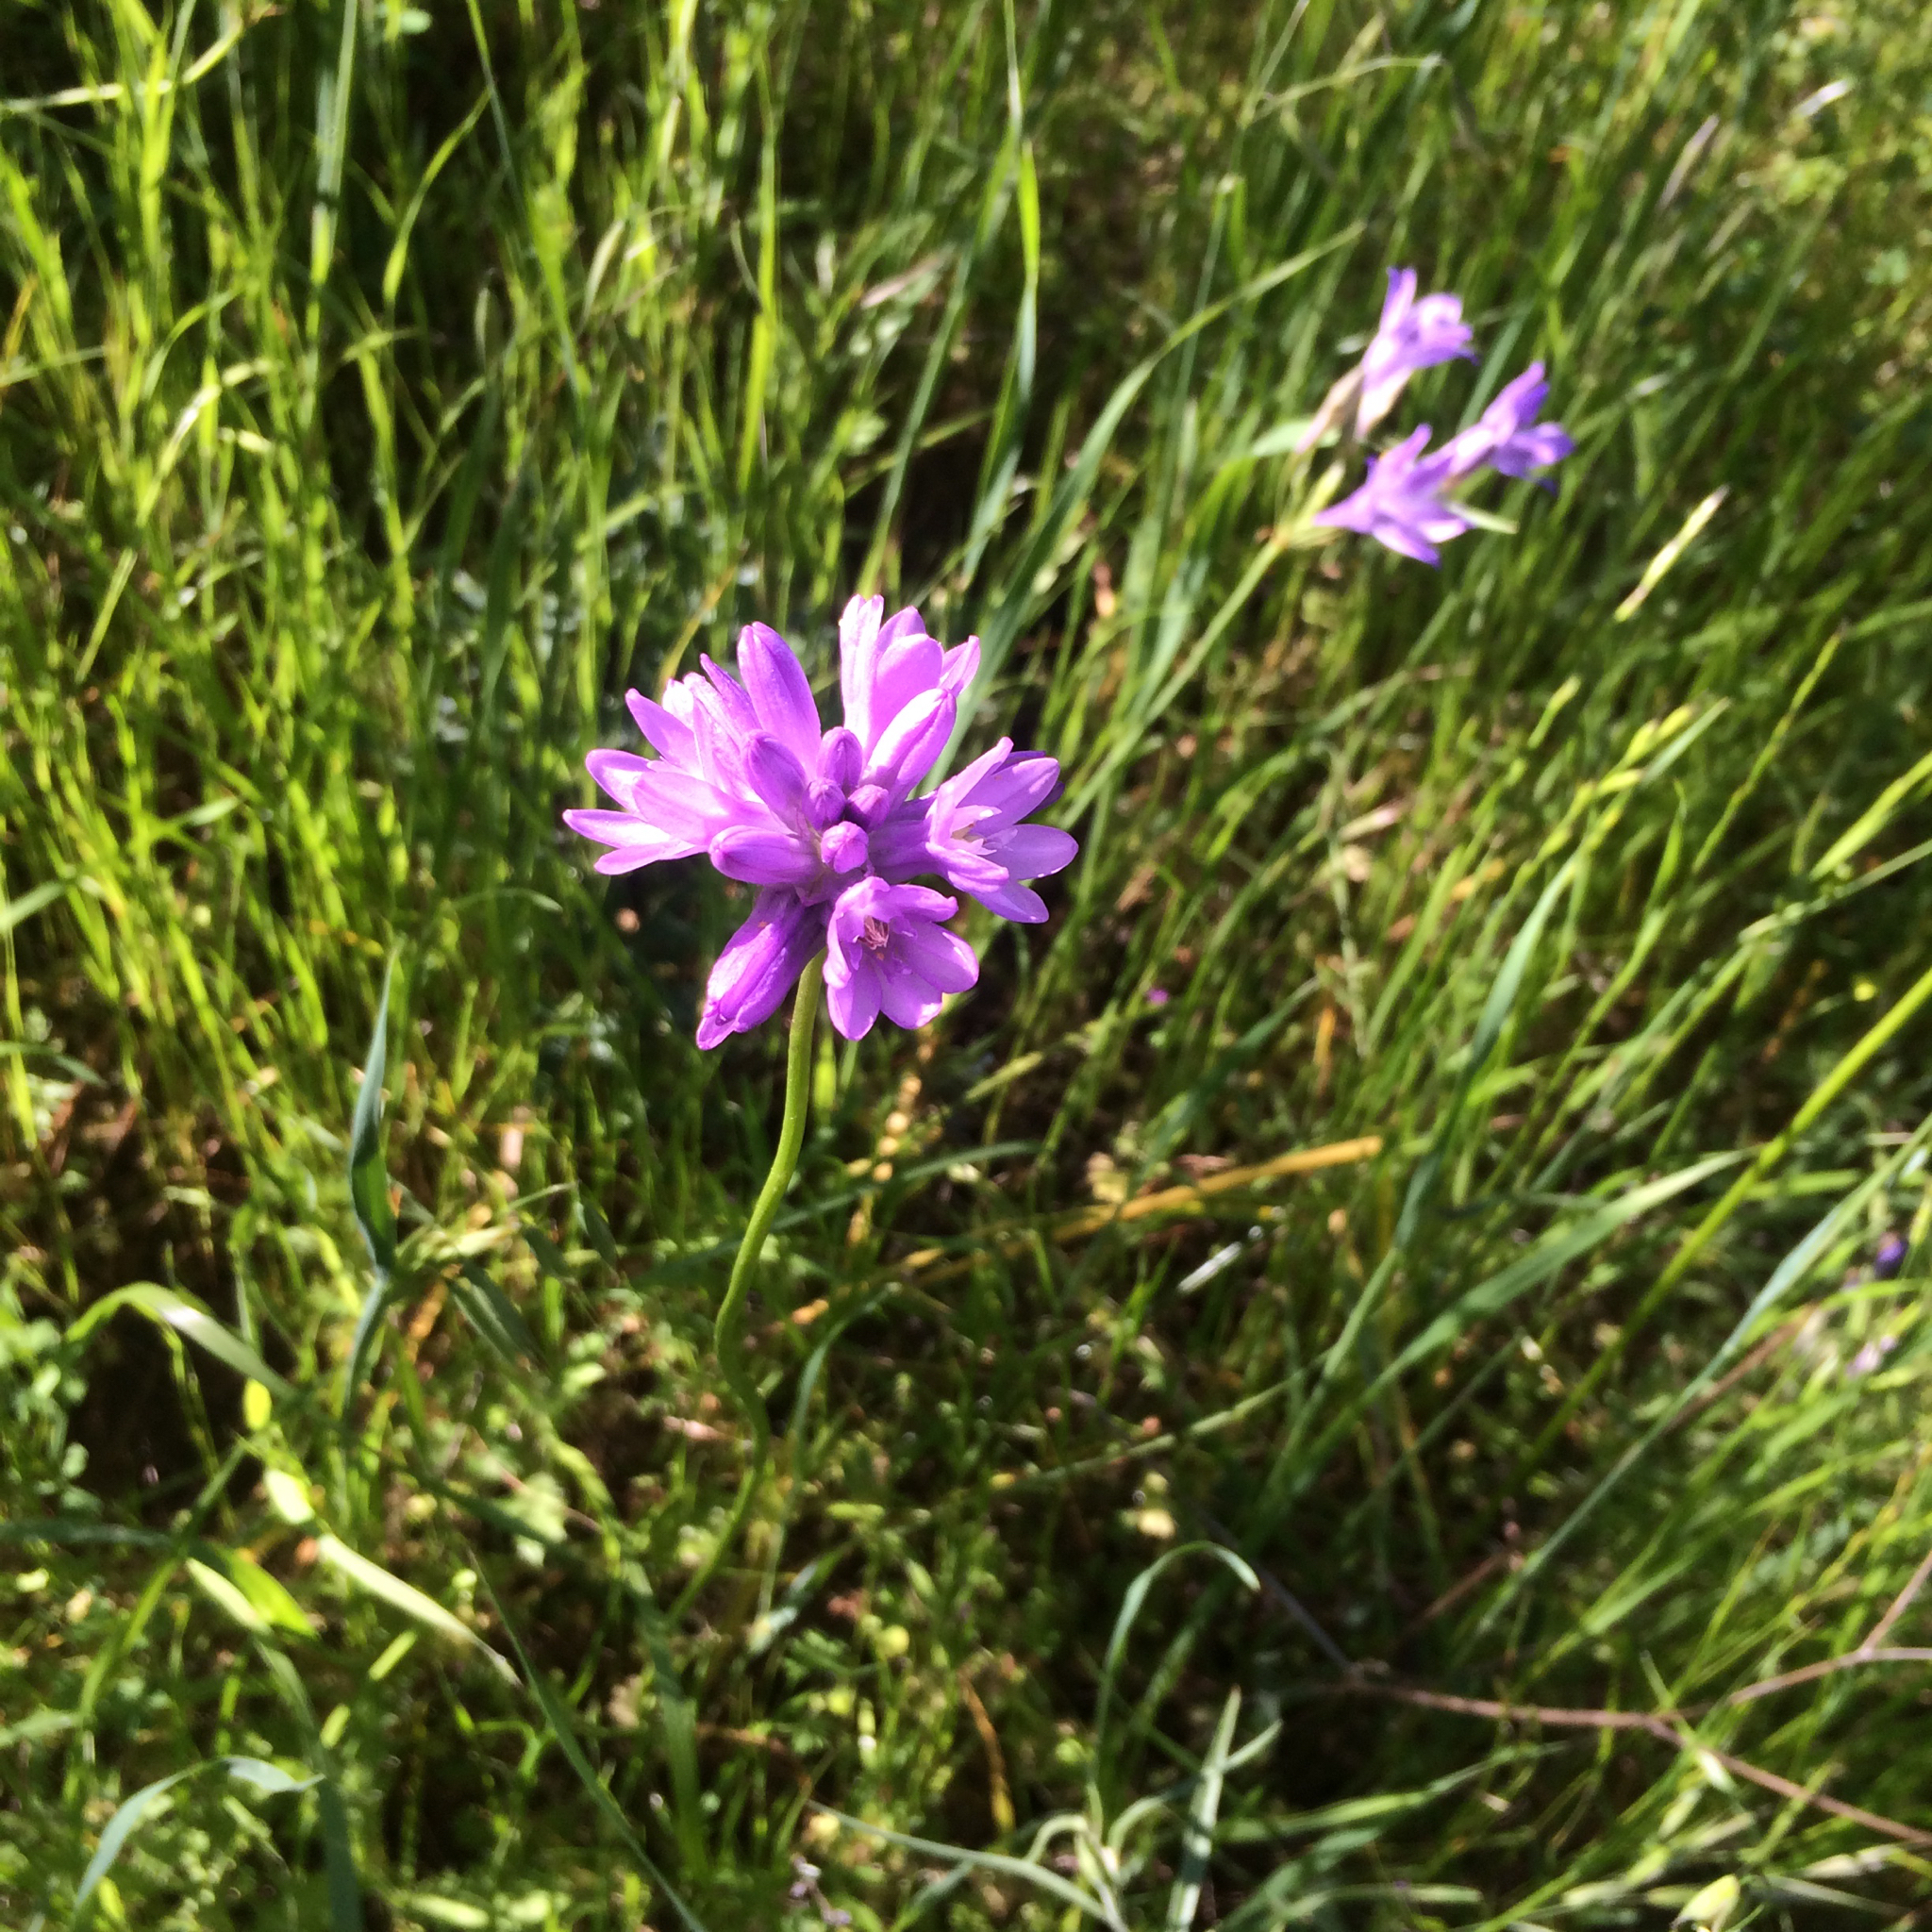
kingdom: Plantae
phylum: Tracheophyta
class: Liliopsida
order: Asparagales
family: Asparagaceae
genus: Dipterostemon
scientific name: Dipterostemon capitatus
